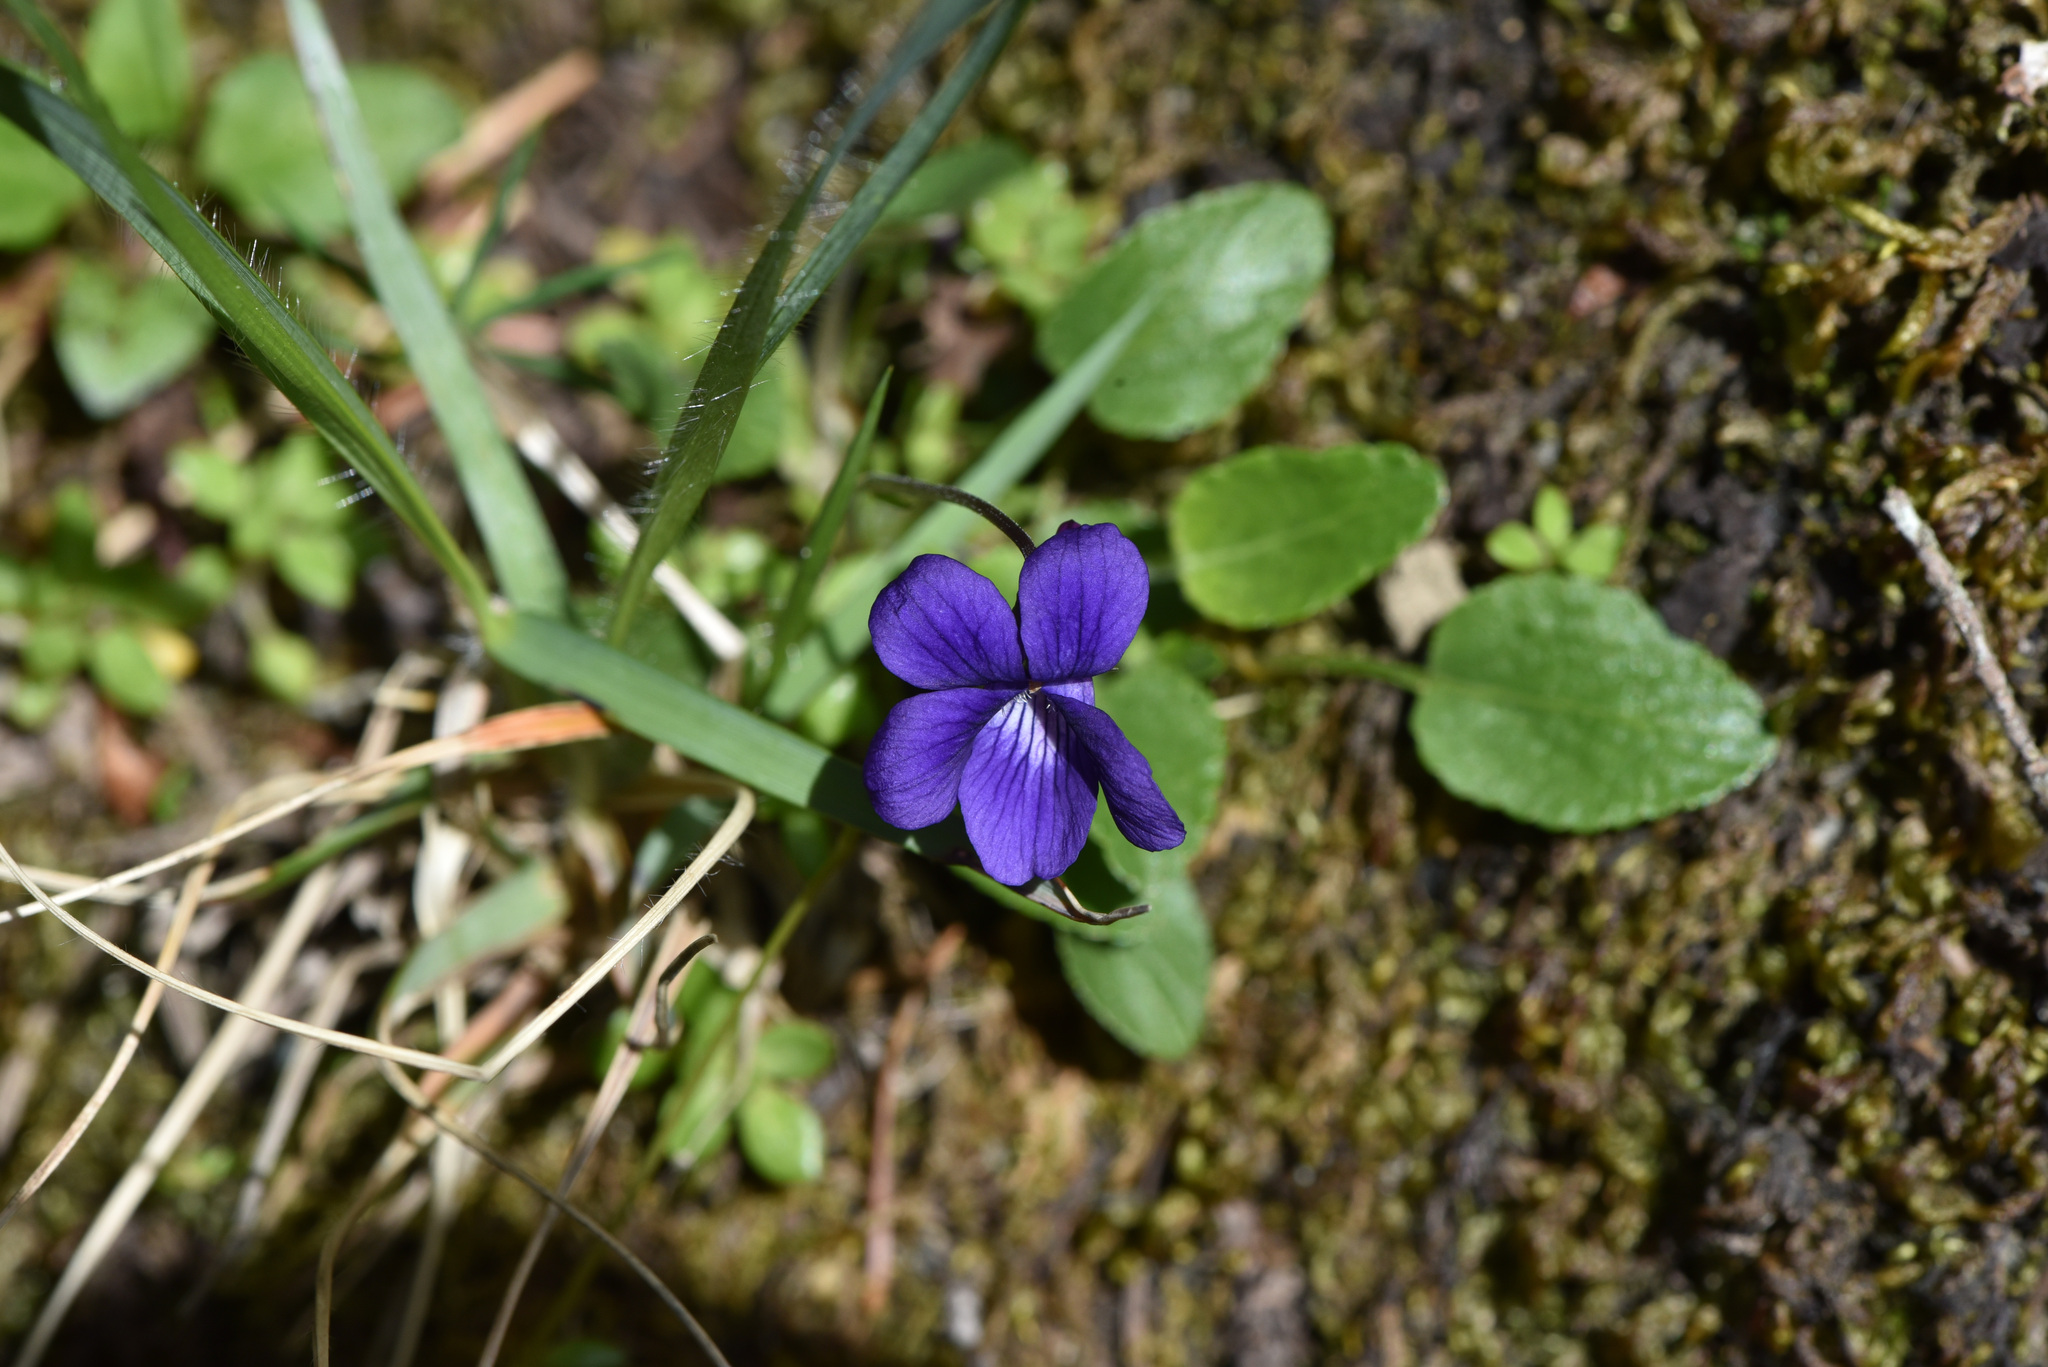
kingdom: Plantae
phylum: Tracheophyta
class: Magnoliopsida
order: Malpighiales
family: Violaceae
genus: Viola
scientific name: Viola adunca
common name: Sand violet
